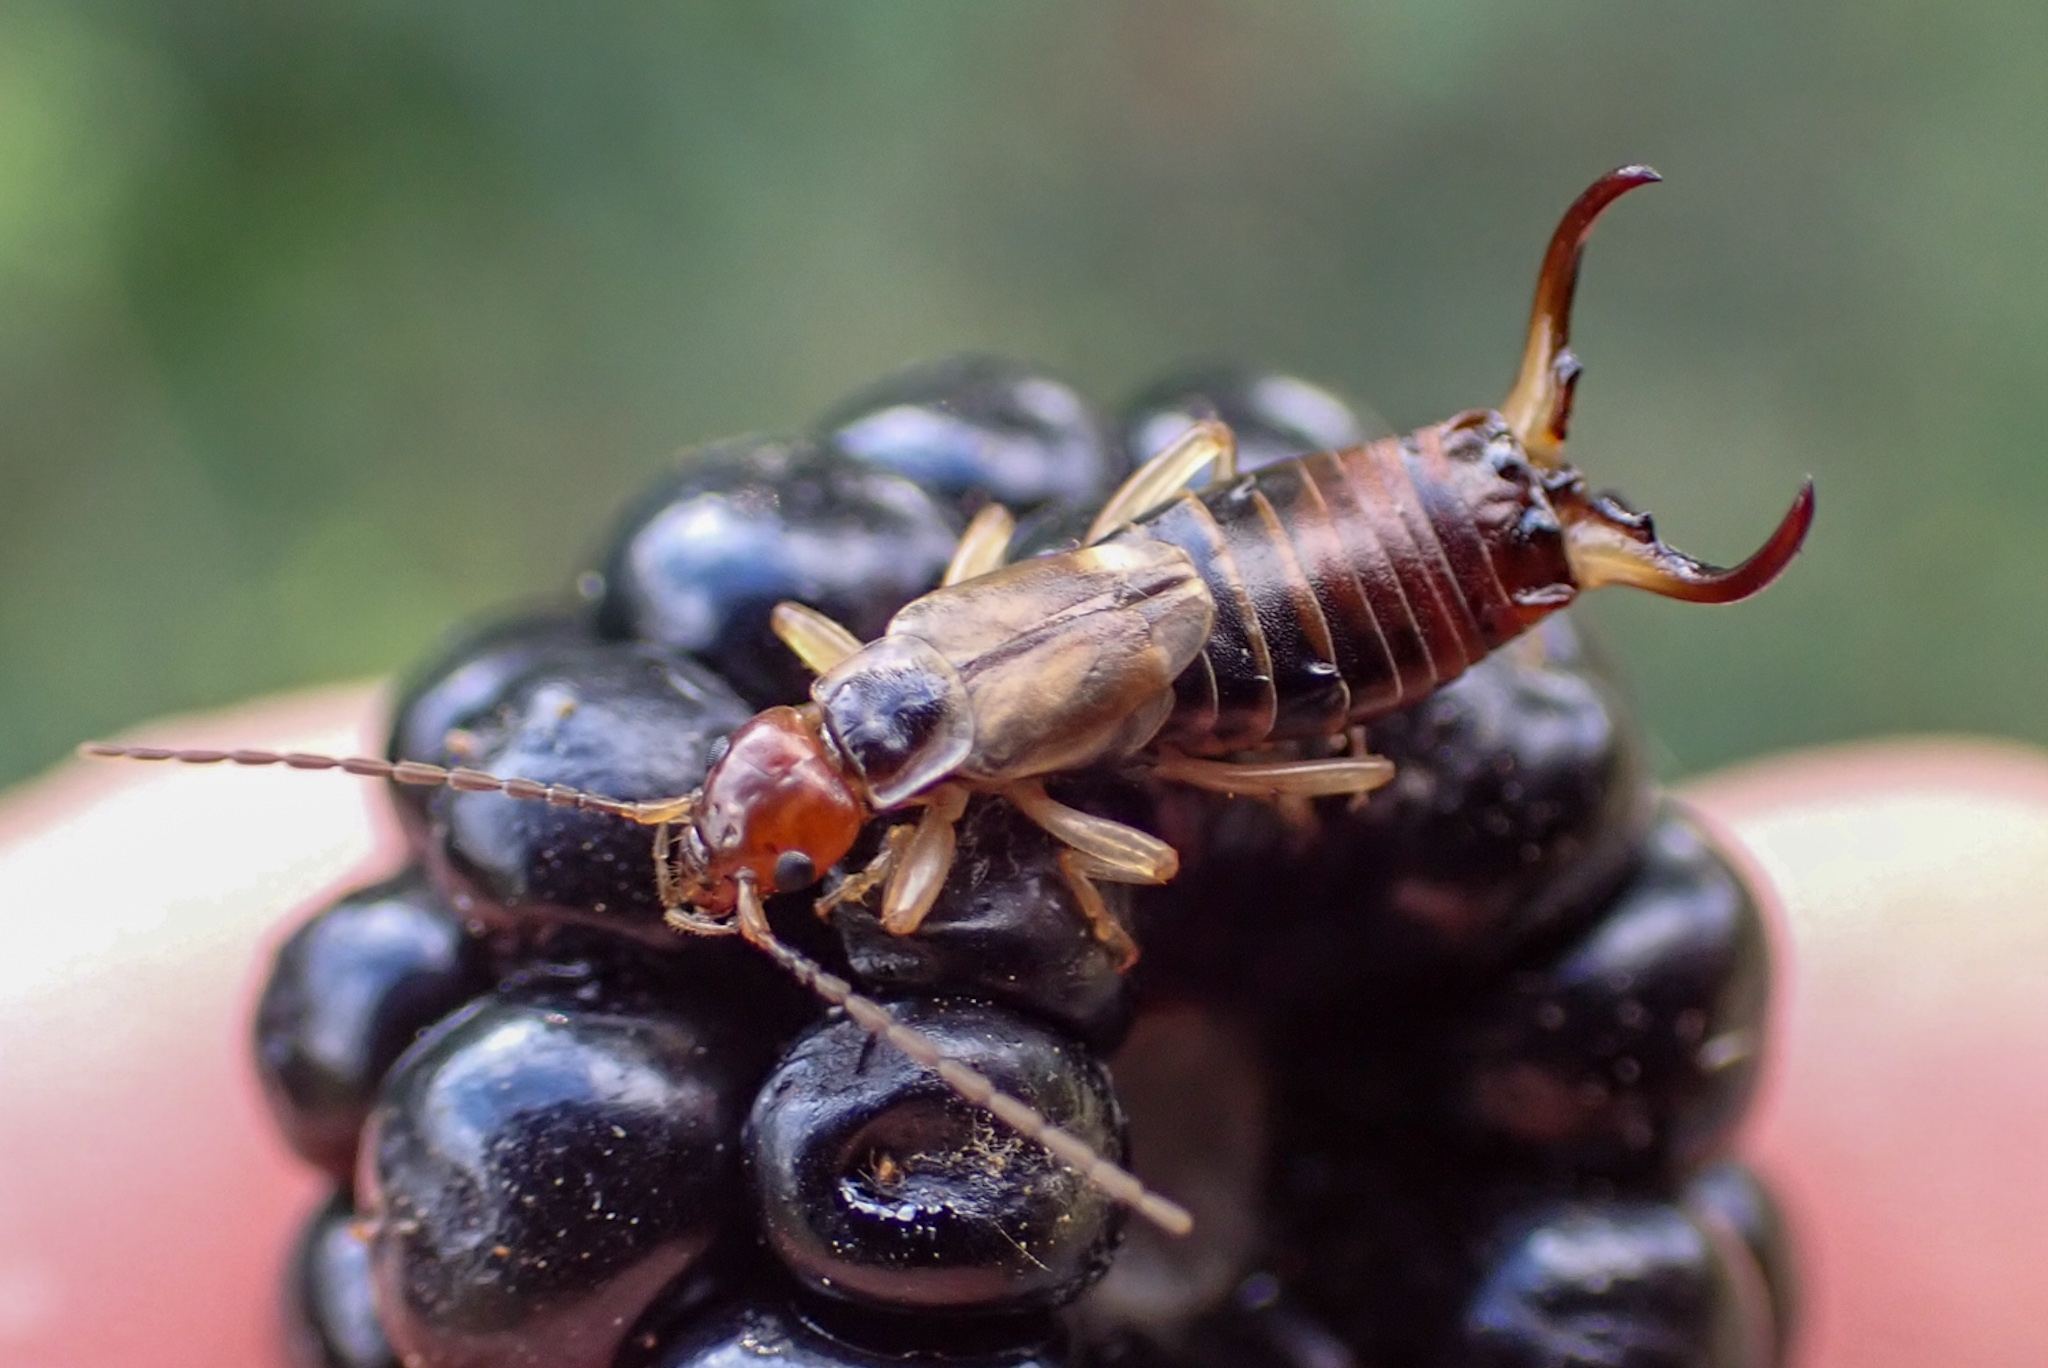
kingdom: Animalia
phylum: Arthropoda
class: Insecta
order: Dermaptera
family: Forficulidae
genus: Forficula
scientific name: Forficula
